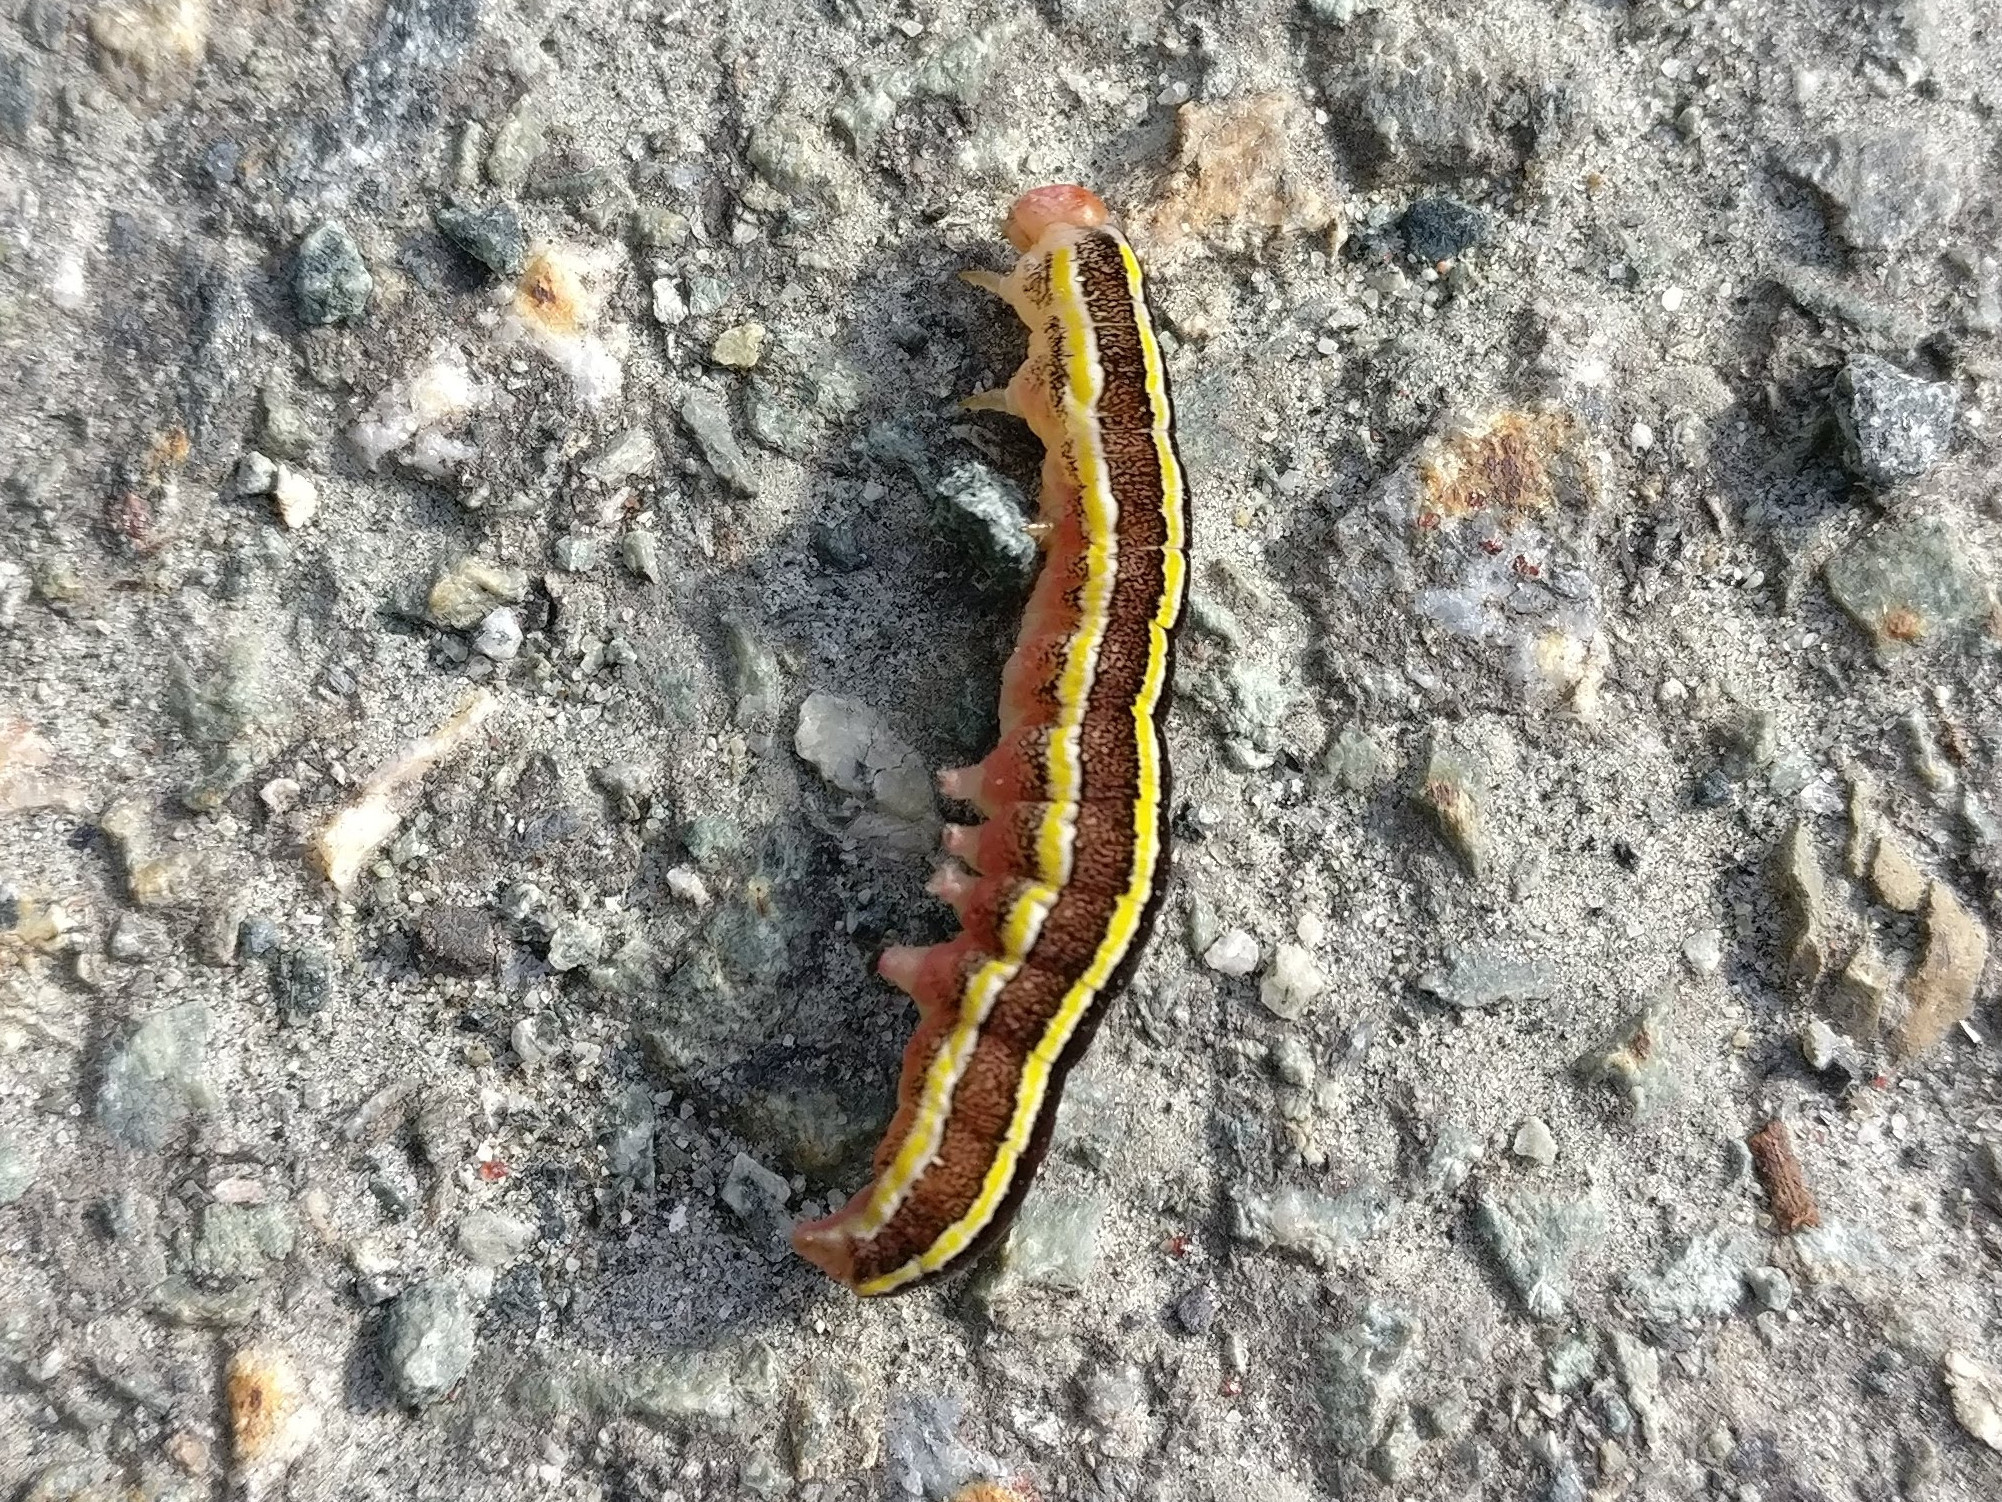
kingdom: Animalia
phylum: Arthropoda
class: Insecta
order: Lepidoptera
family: Noctuidae
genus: Ceramica
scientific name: Ceramica pisi
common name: Broom moth
